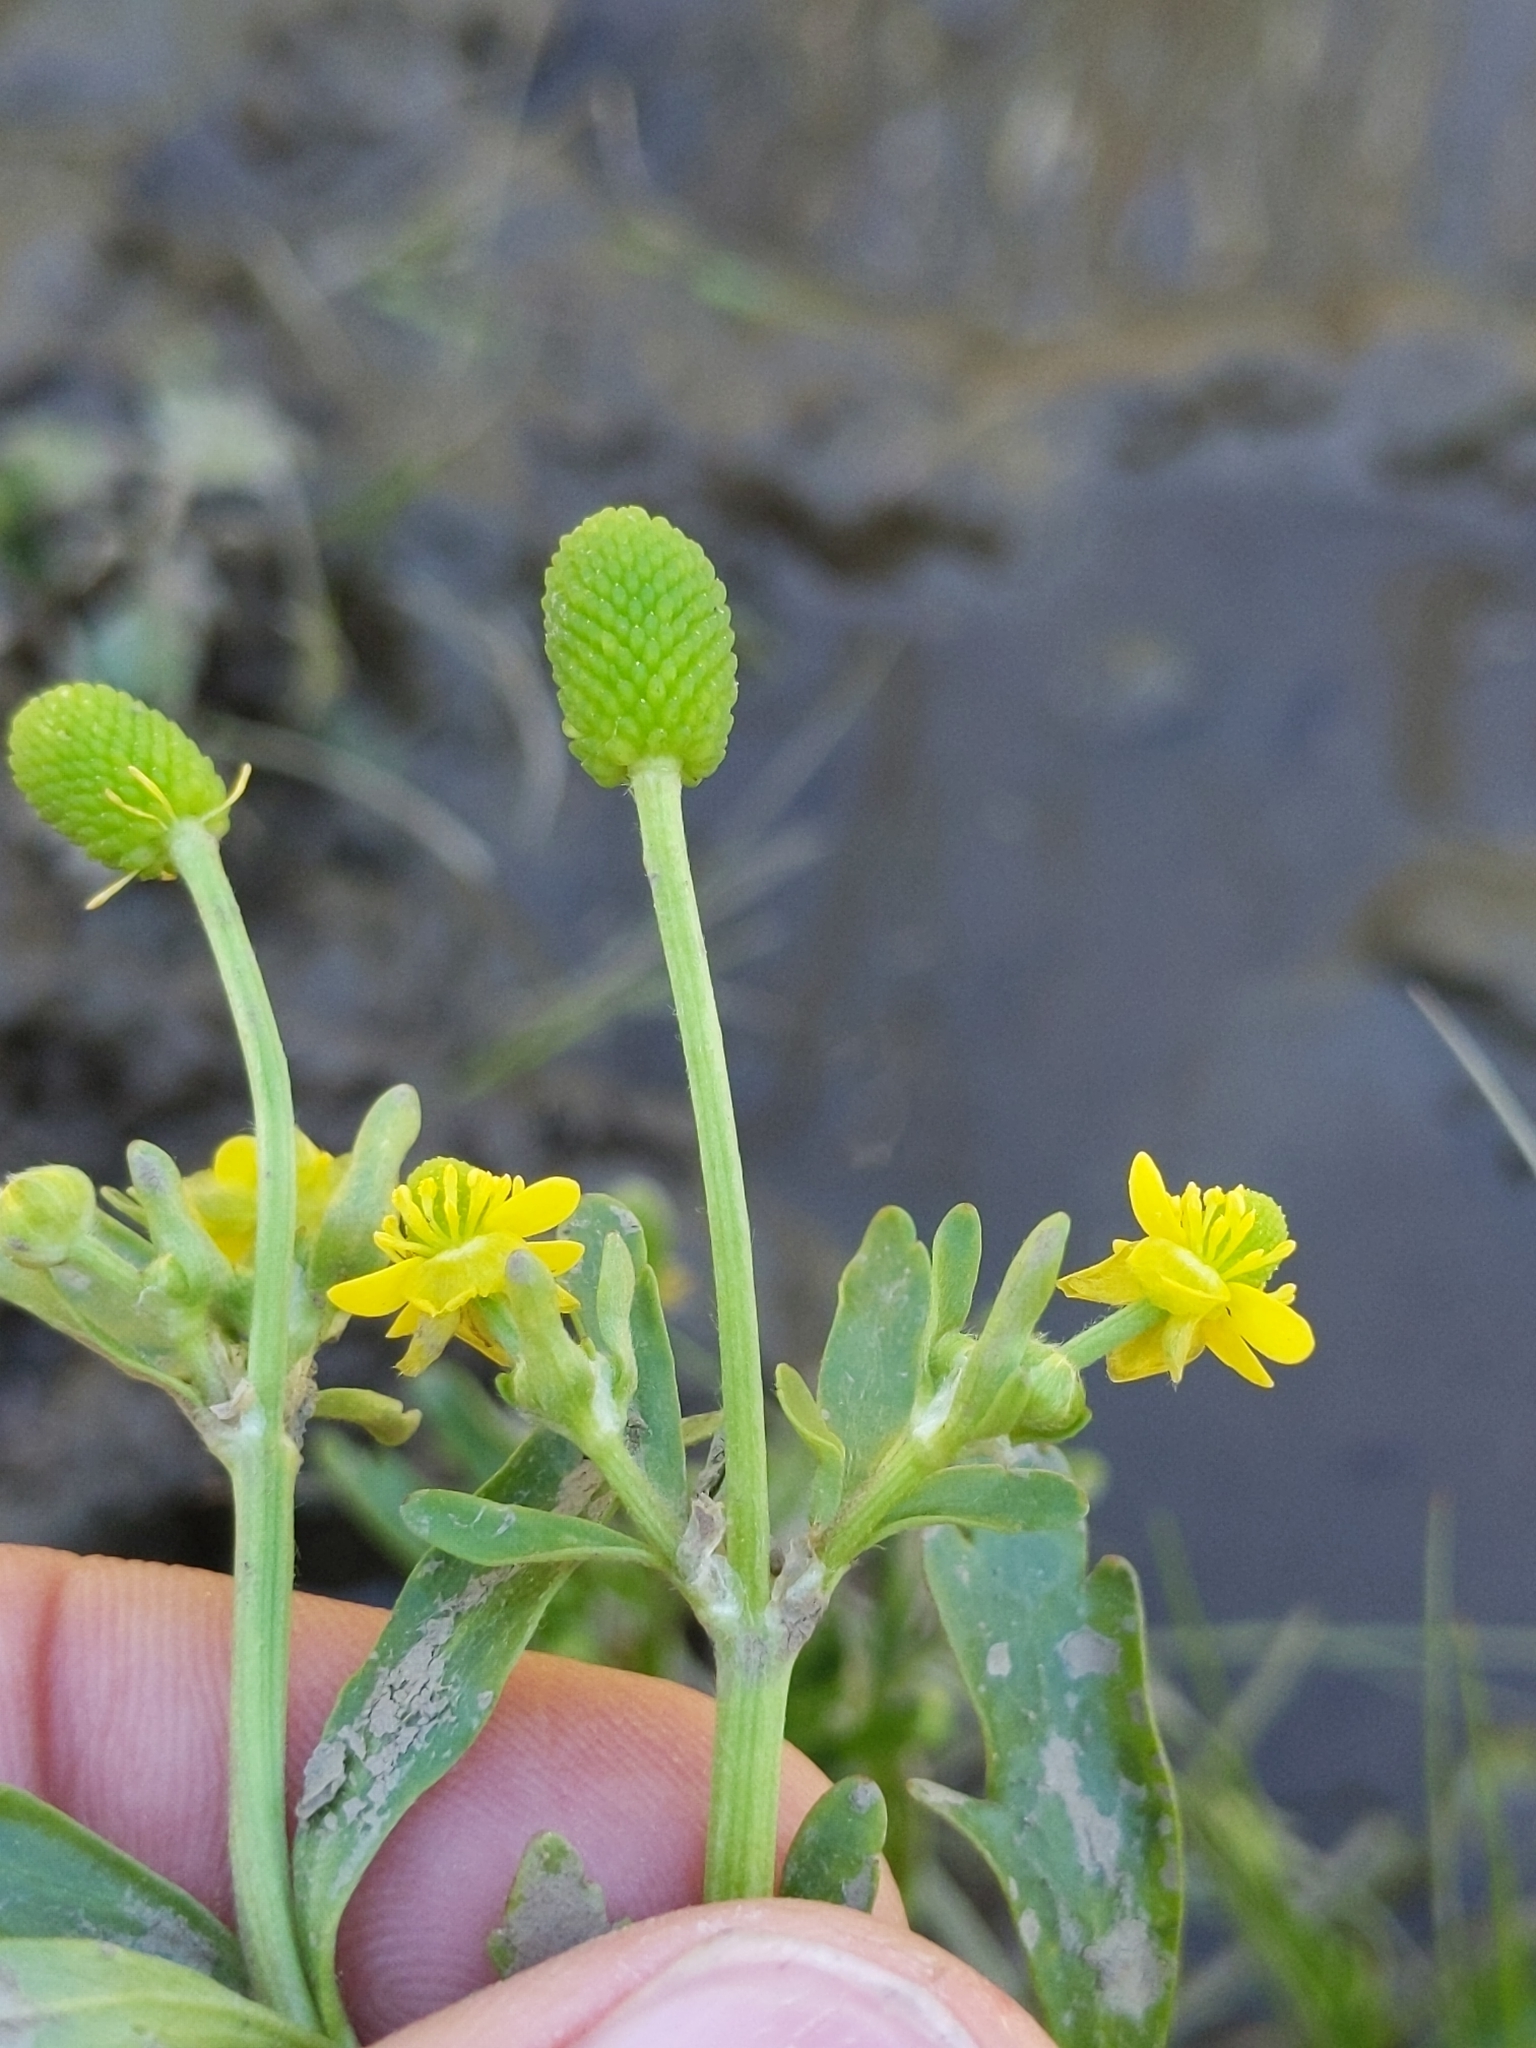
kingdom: Plantae
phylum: Tracheophyta
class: Magnoliopsida
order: Ranunculales
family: Ranunculaceae
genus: Ranunculus
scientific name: Ranunculus sceleratus
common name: Celery-leaved buttercup
